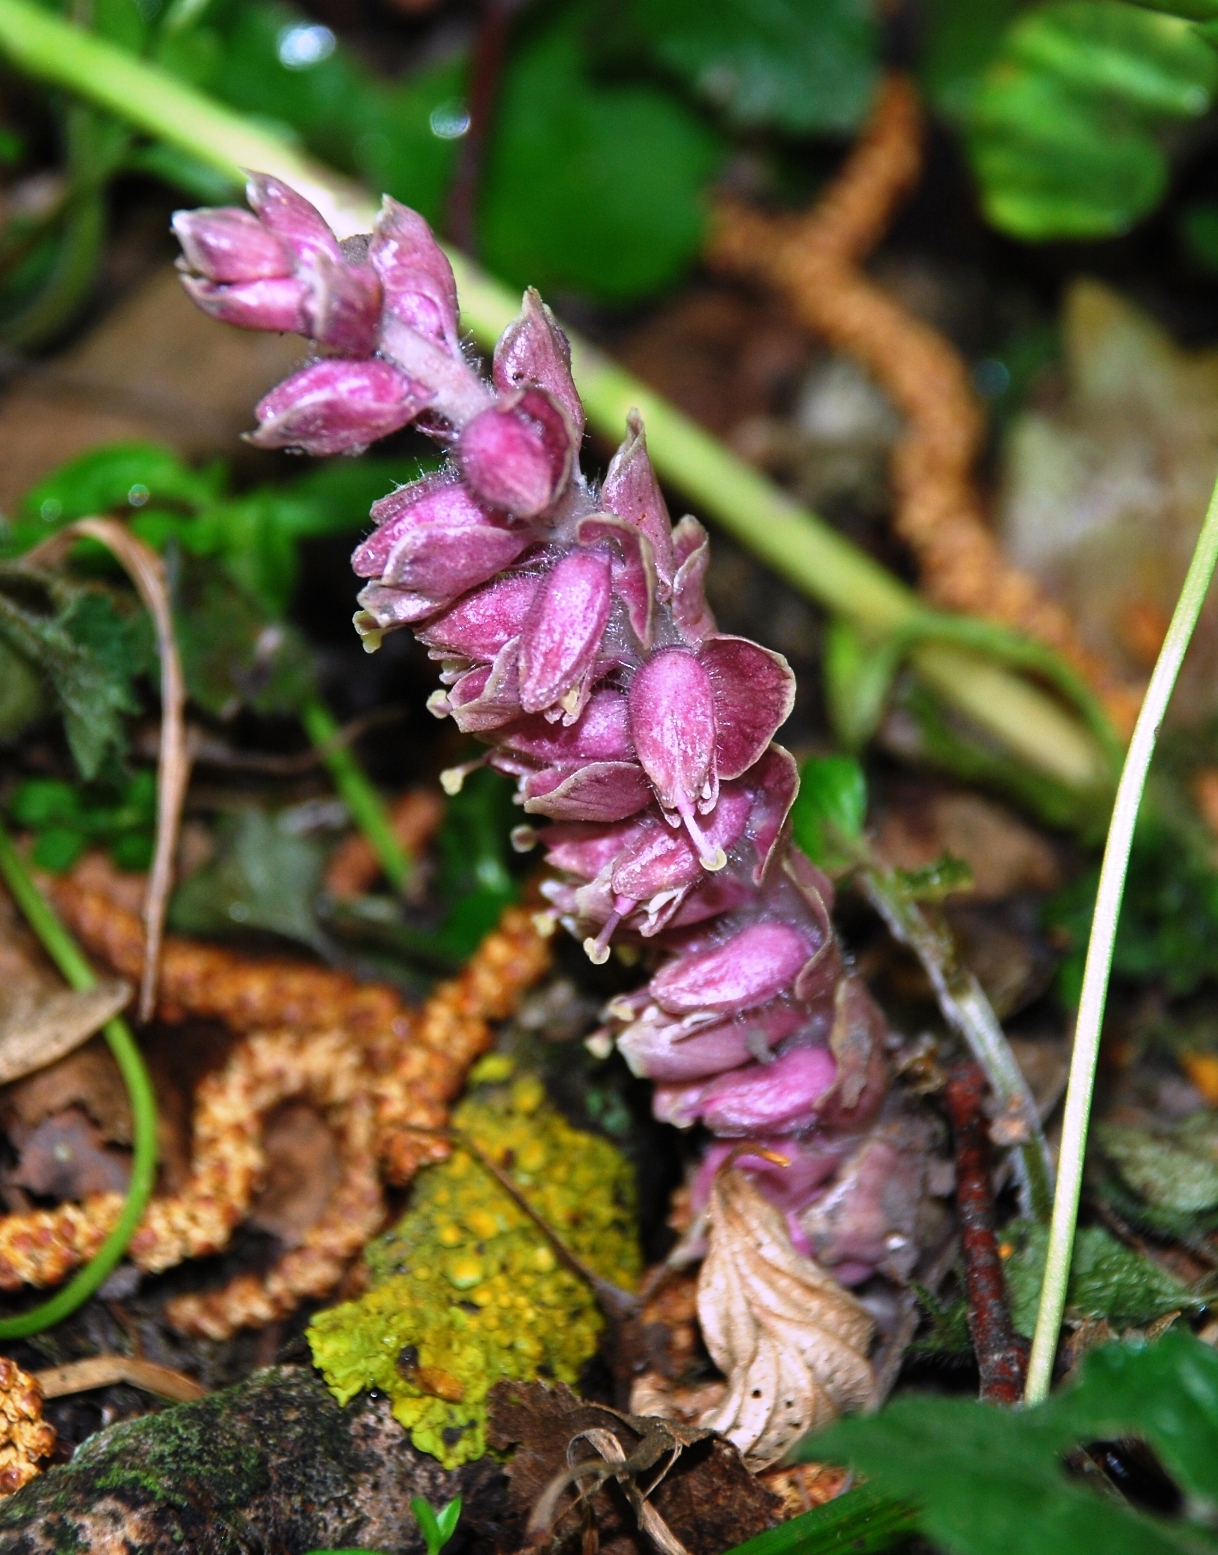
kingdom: Plantae
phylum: Tracheophyta
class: Magnoliopsida
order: Lamiales
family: Orobanchaceae
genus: Lathraea
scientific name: Lathraea squamaria
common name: Toothwort
